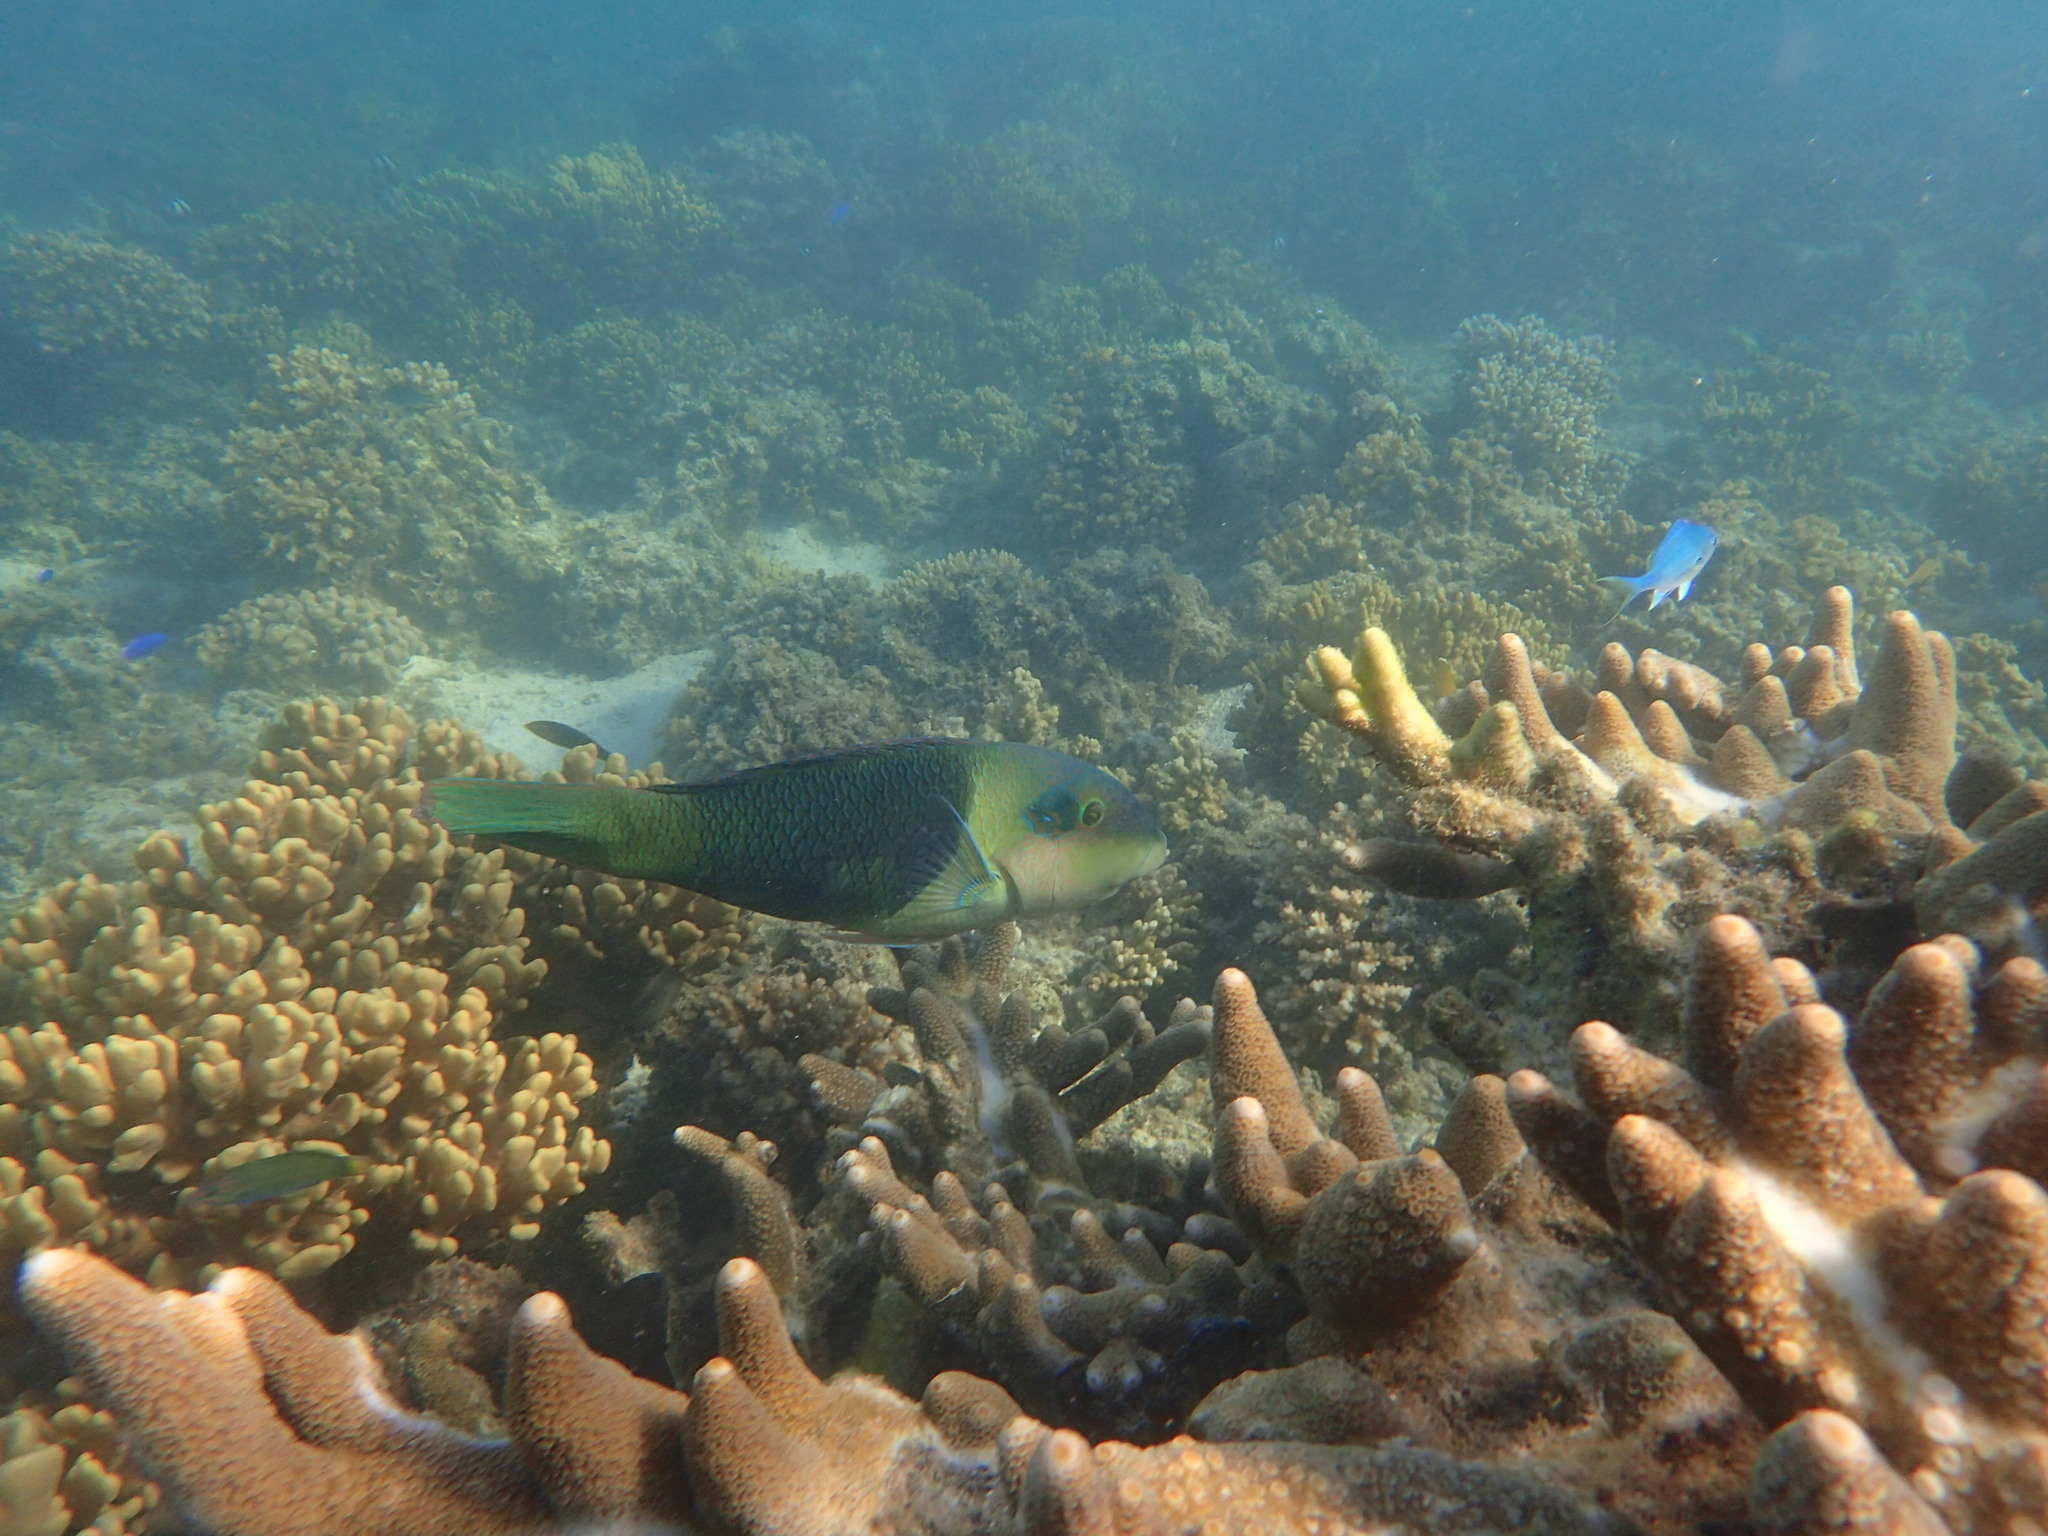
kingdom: Animalia
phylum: Chordata
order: Perciformes
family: Labridae
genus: Hemigymnus
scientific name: Hemigymnus melapterus
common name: Blackeye thicklip
